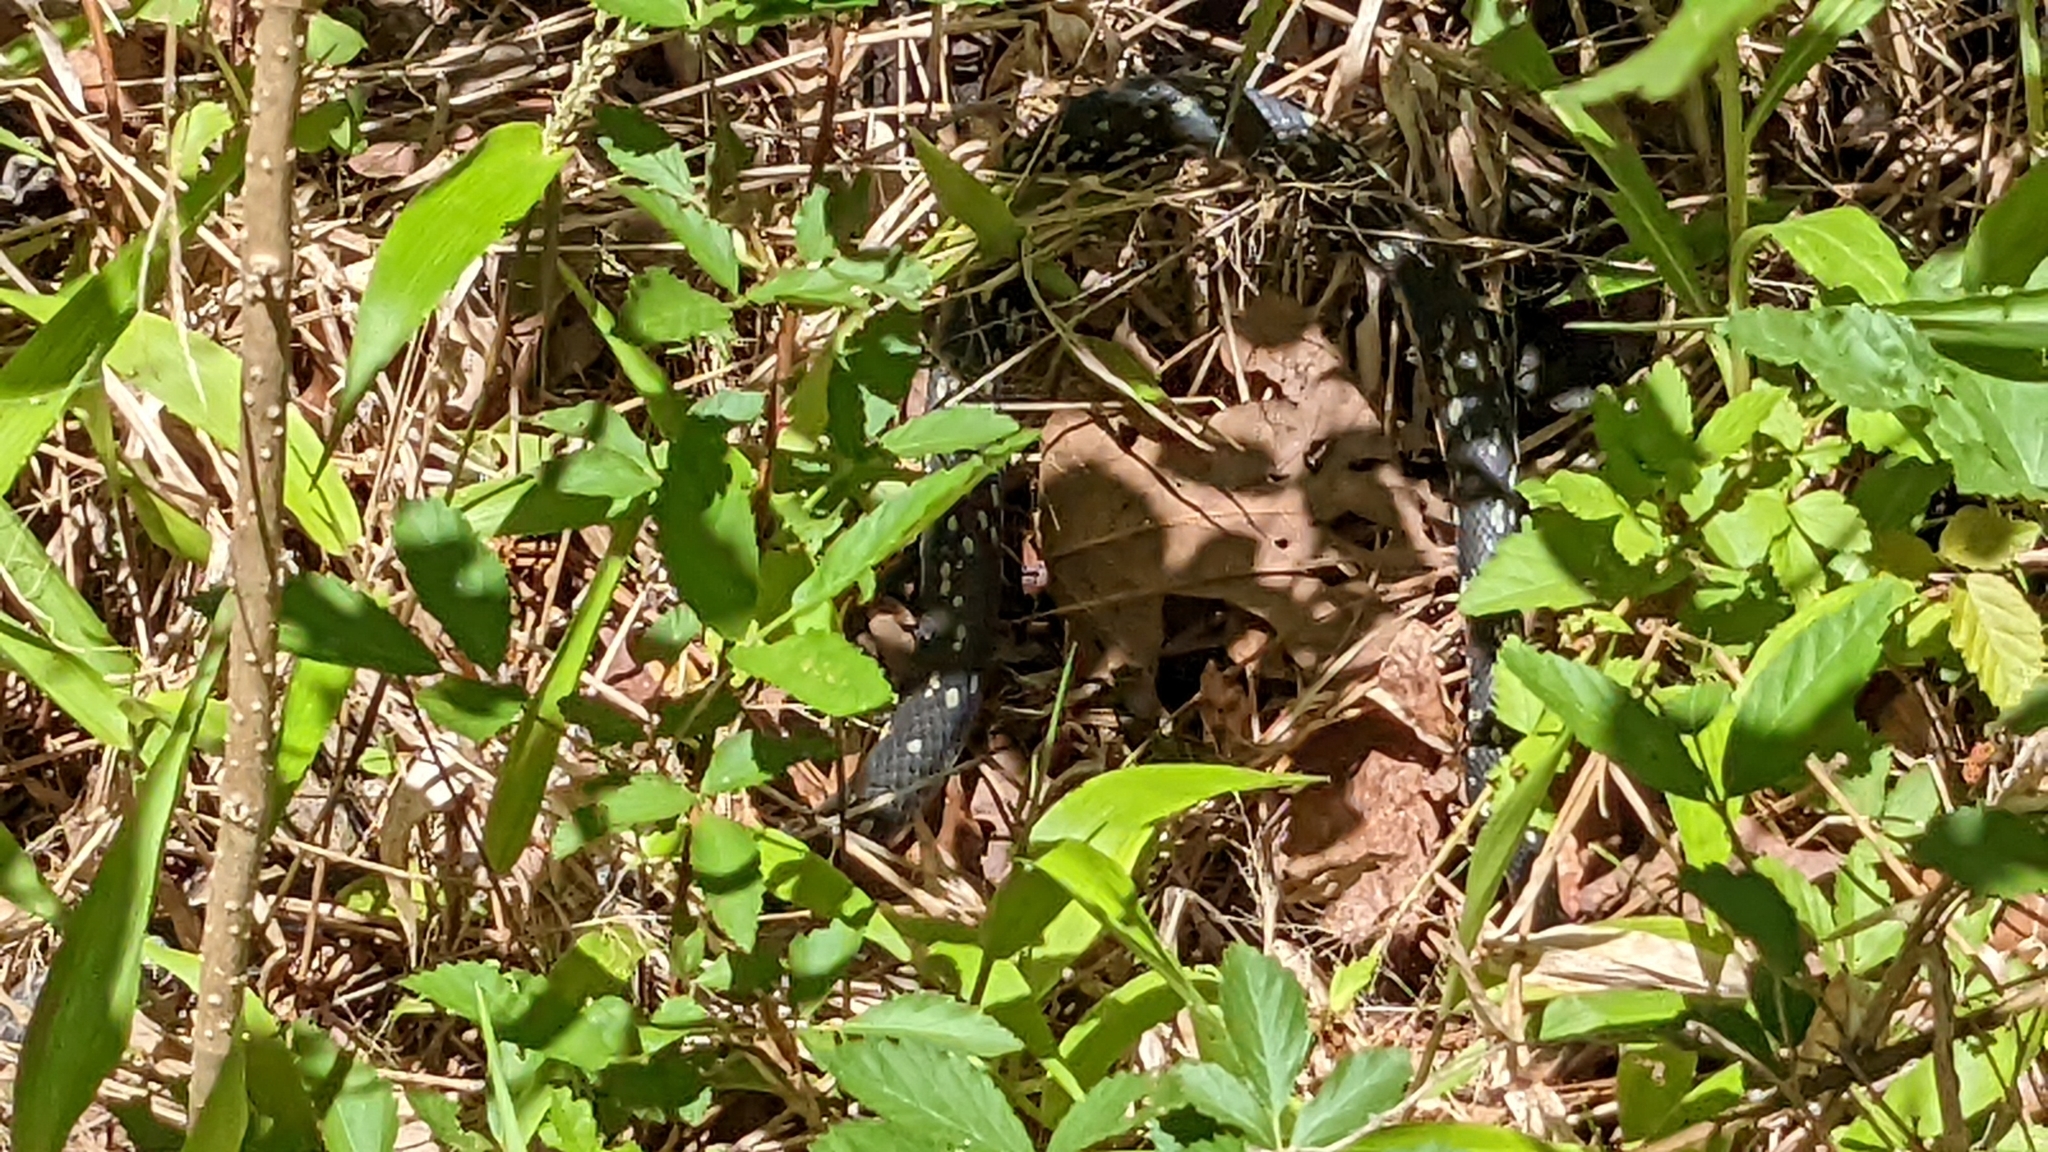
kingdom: Animalia
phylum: Chordata
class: Squamata
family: Colubridae
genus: Coluber
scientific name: Coluber constrictor
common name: Eastern racer
